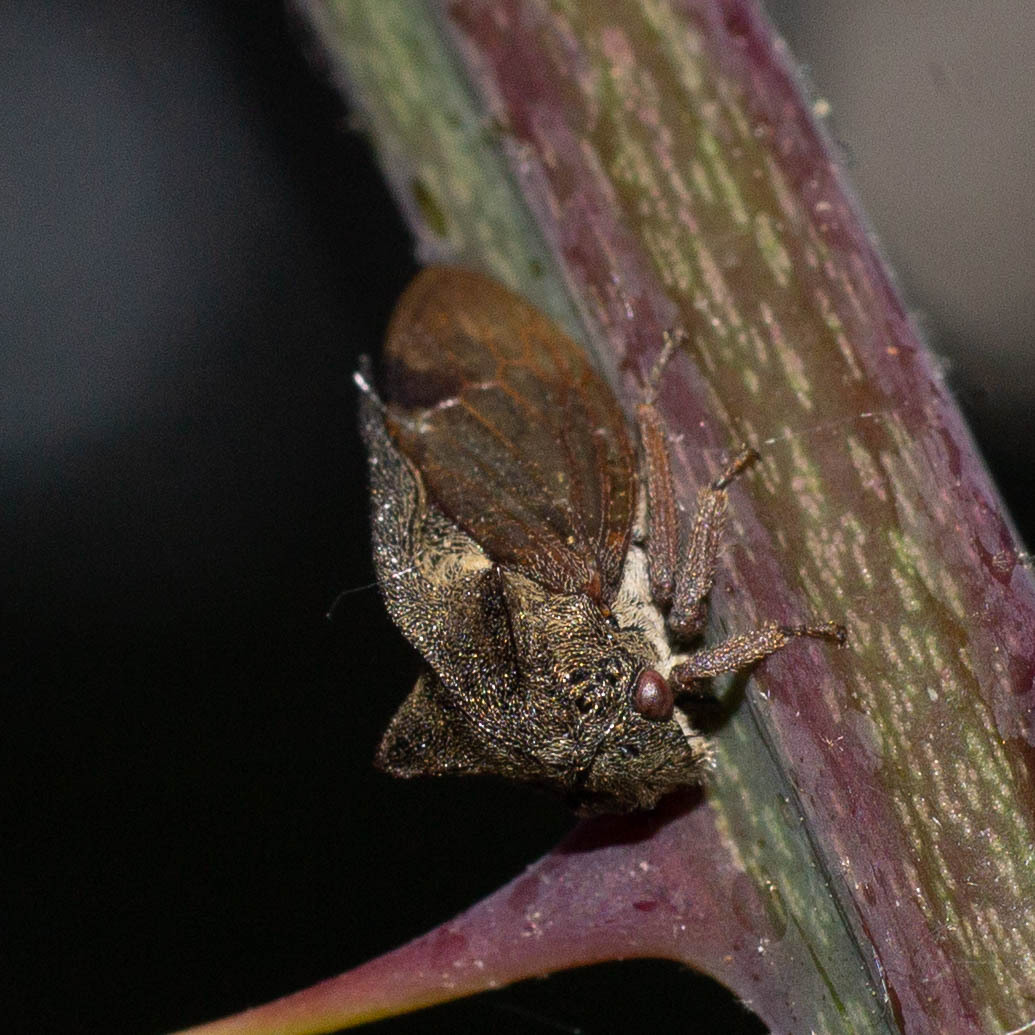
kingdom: Animalia
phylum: Arthropoda
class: Insecta
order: Hemiptera
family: Membracidae
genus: Centrotus
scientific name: Centrotus cornuta
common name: Treehopper
